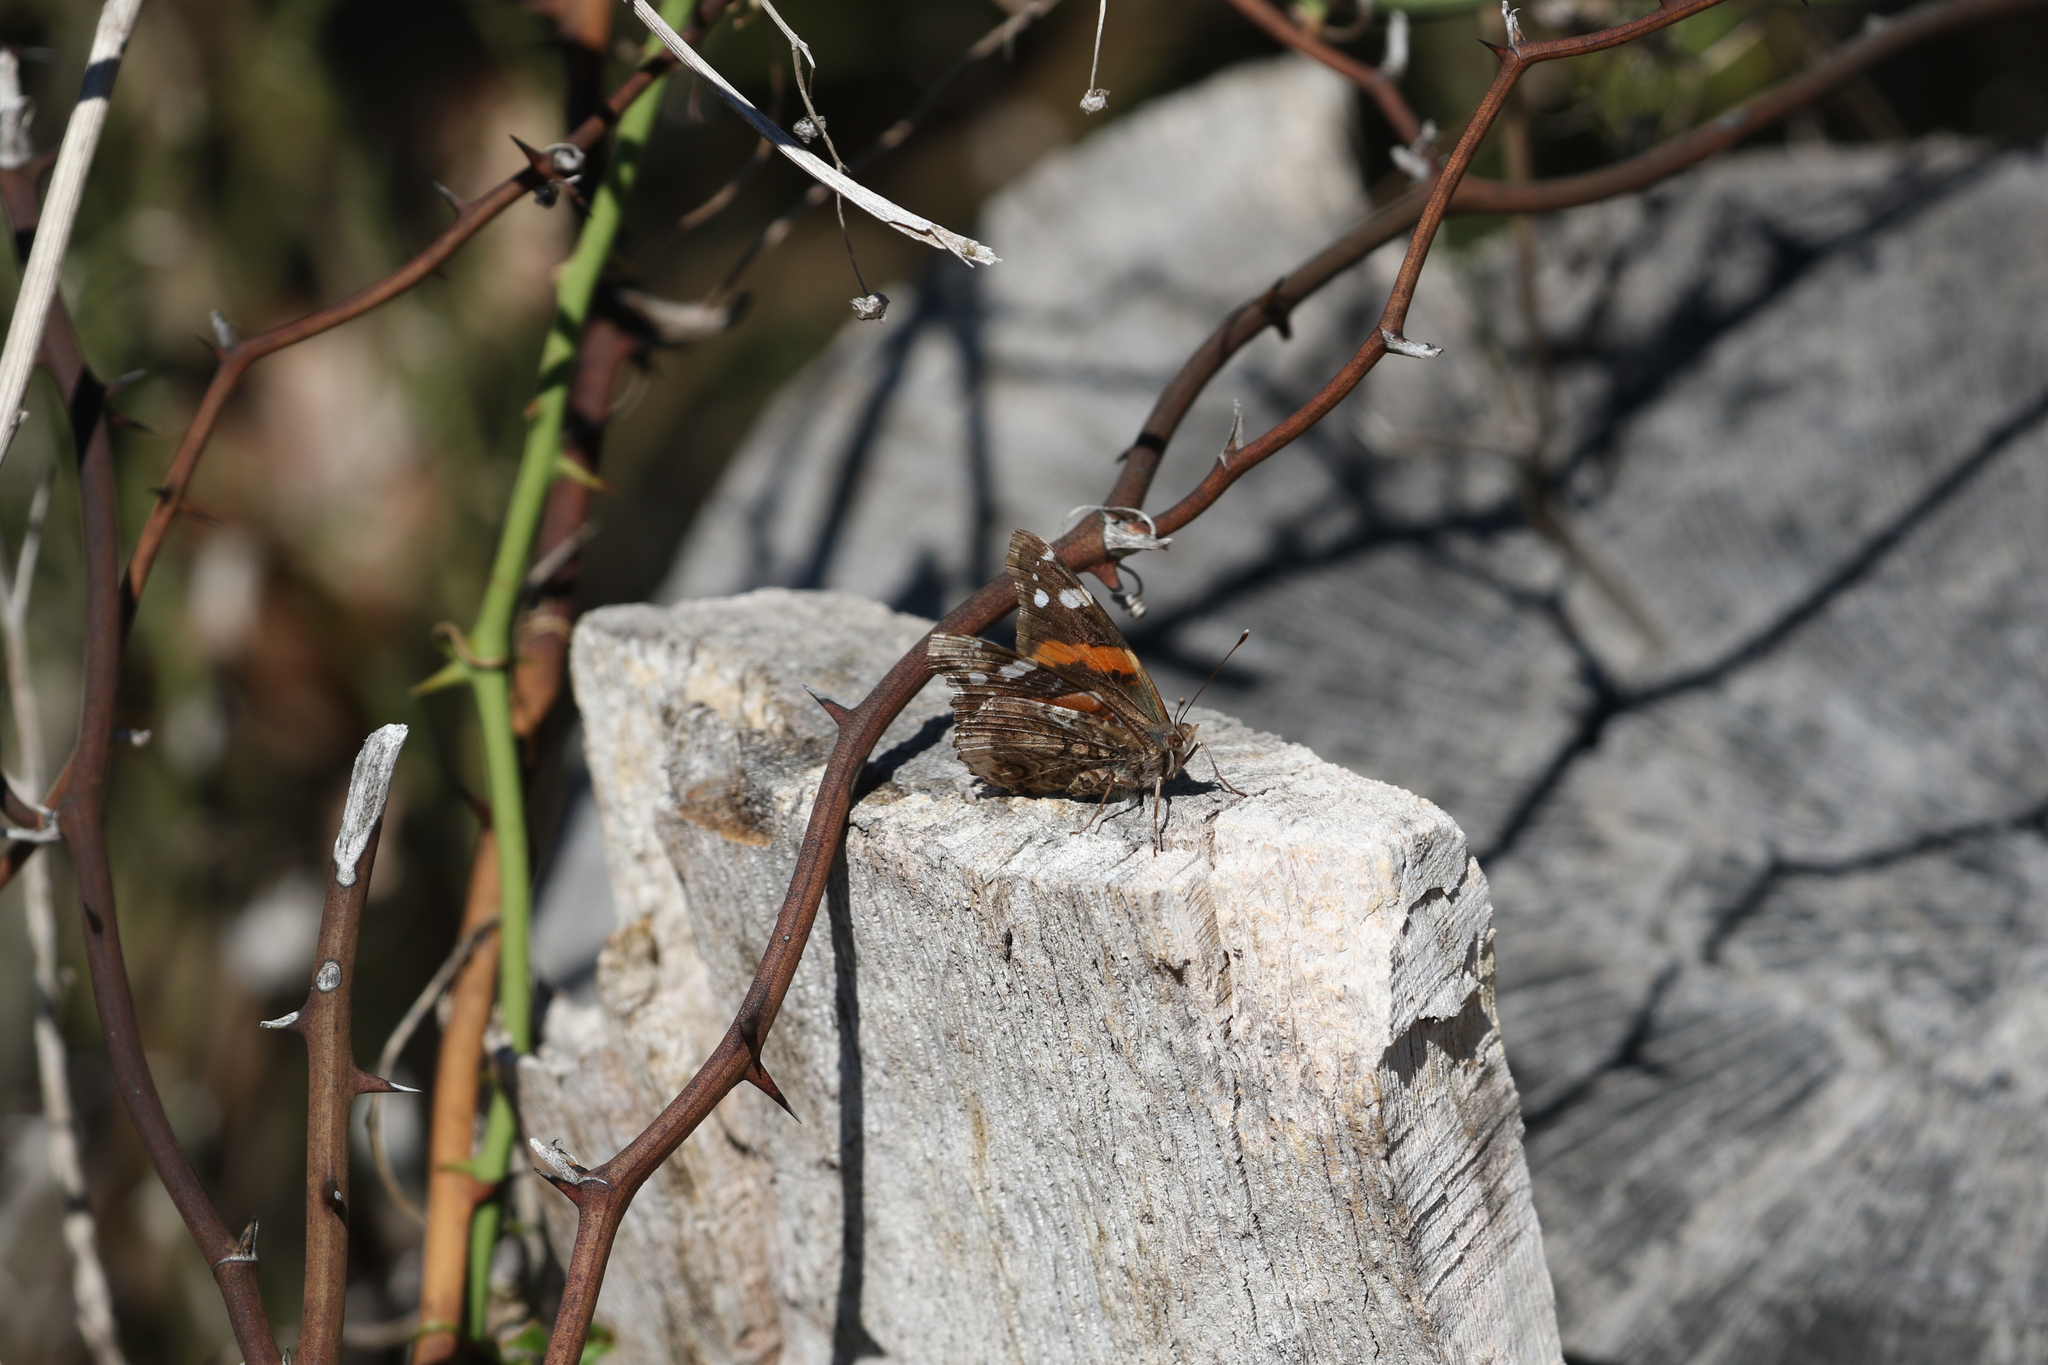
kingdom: Animalia
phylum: Arthropoda
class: Insecta
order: Lepidoptera
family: Nymphalidae
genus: Vanessa
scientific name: Vanessa atalanta
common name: Red admiral
